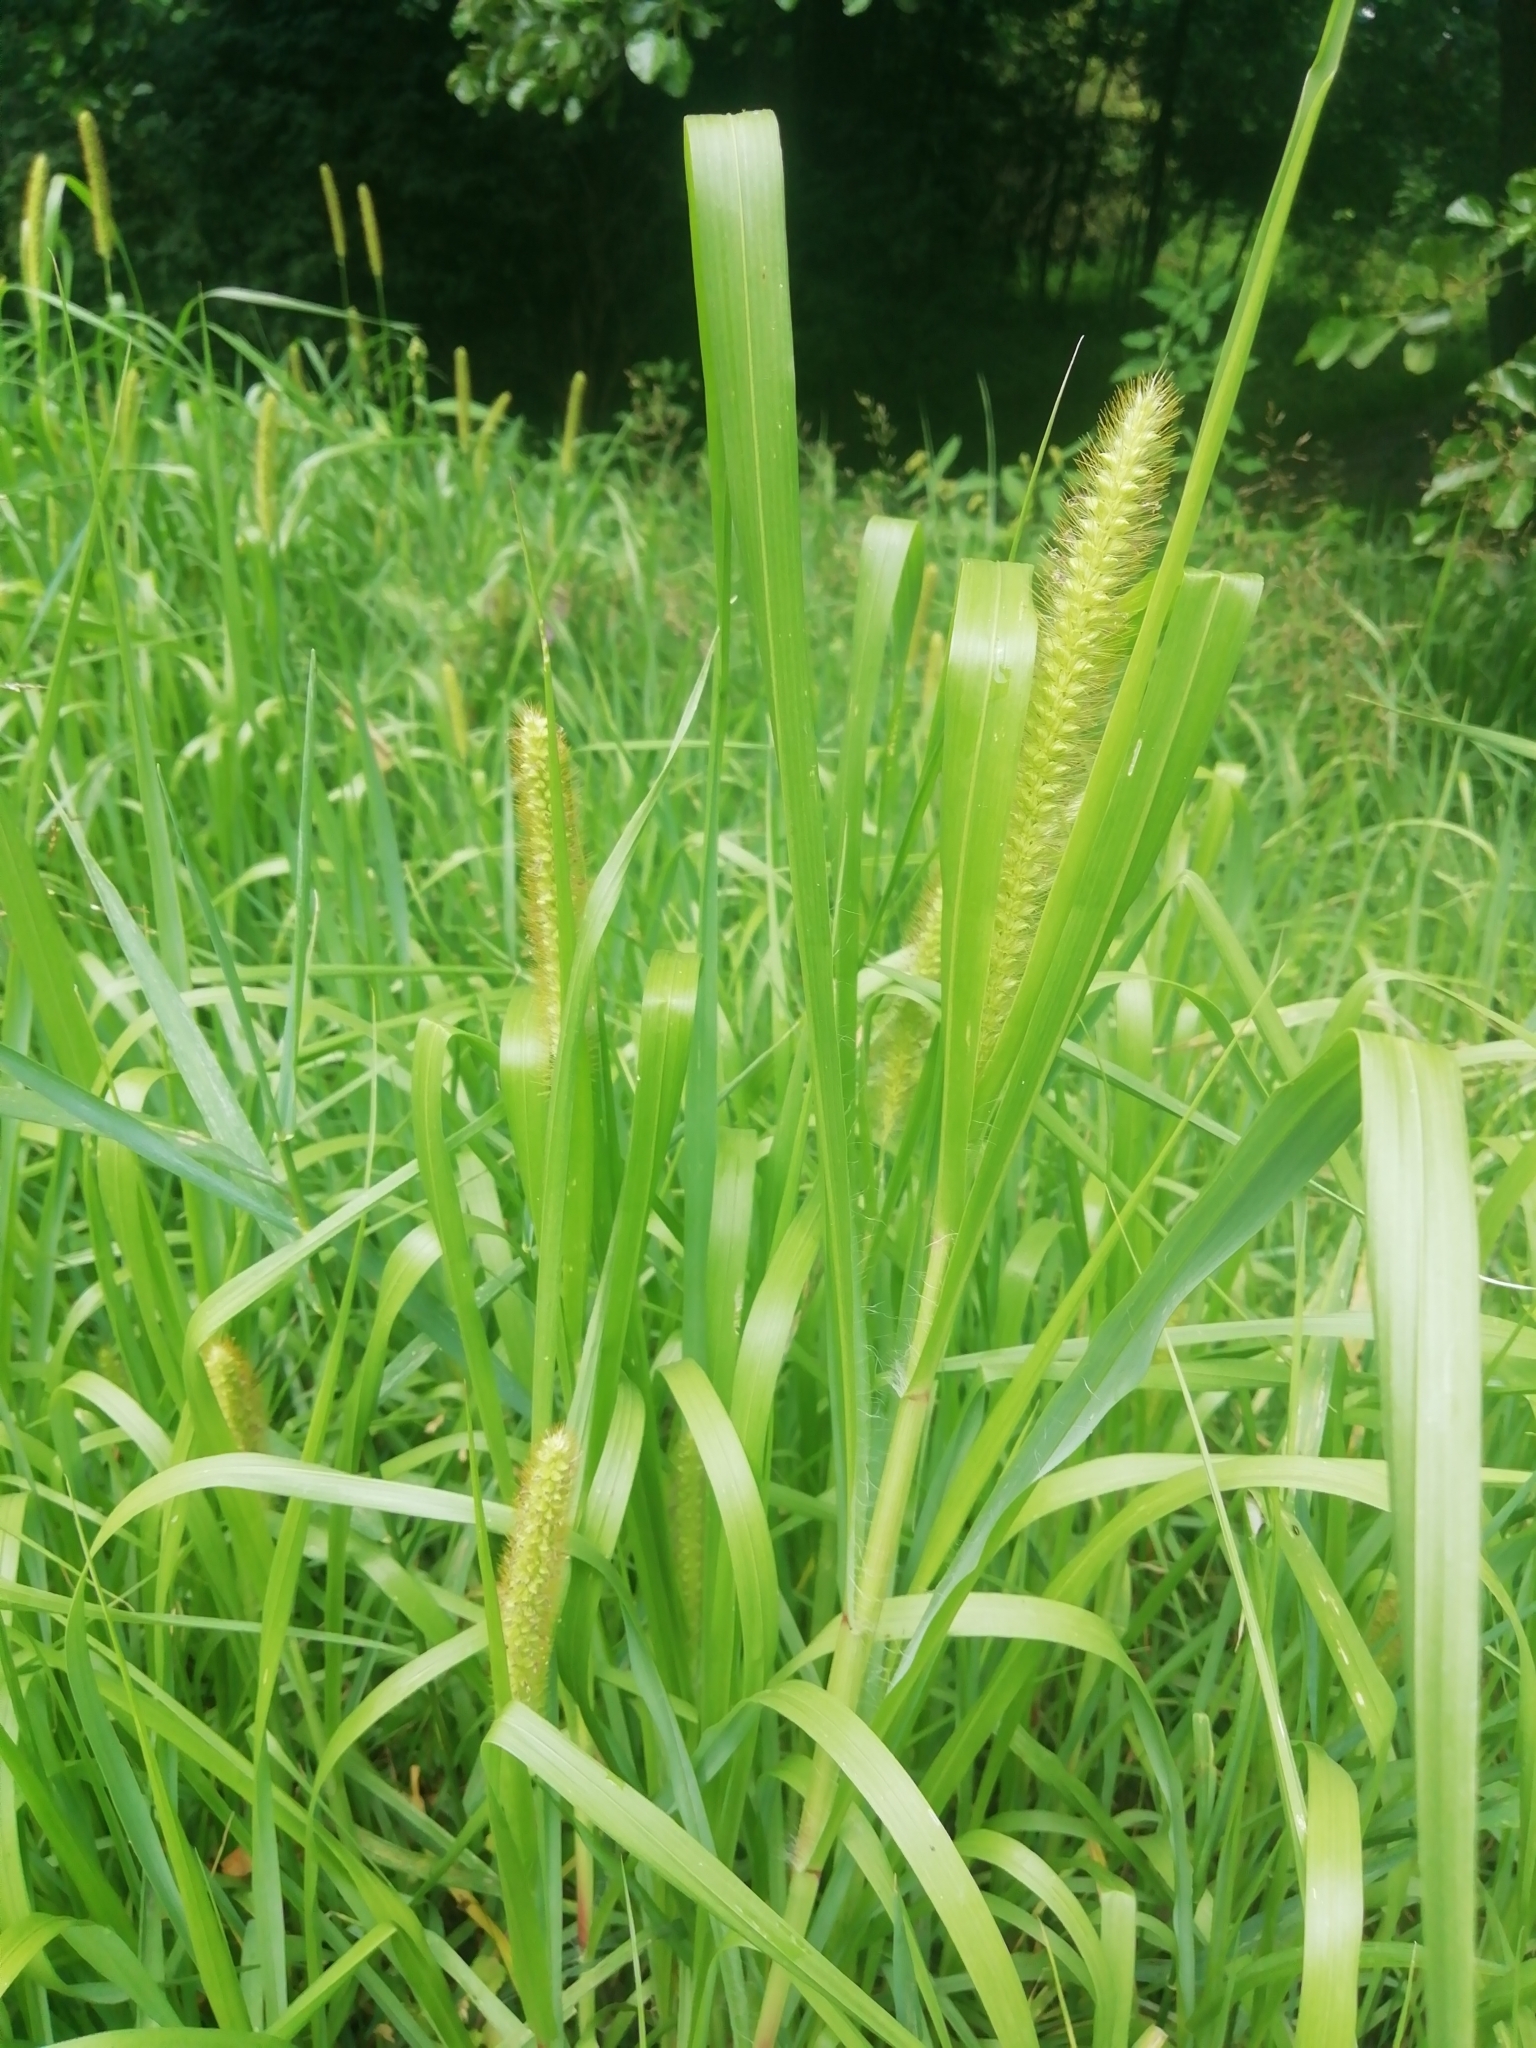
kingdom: Plantae
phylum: Tracheophyta
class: Liliopsida
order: Poales
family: Poaceae
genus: Setaria
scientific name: Setaria pumila
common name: Yellow bristle-grass
